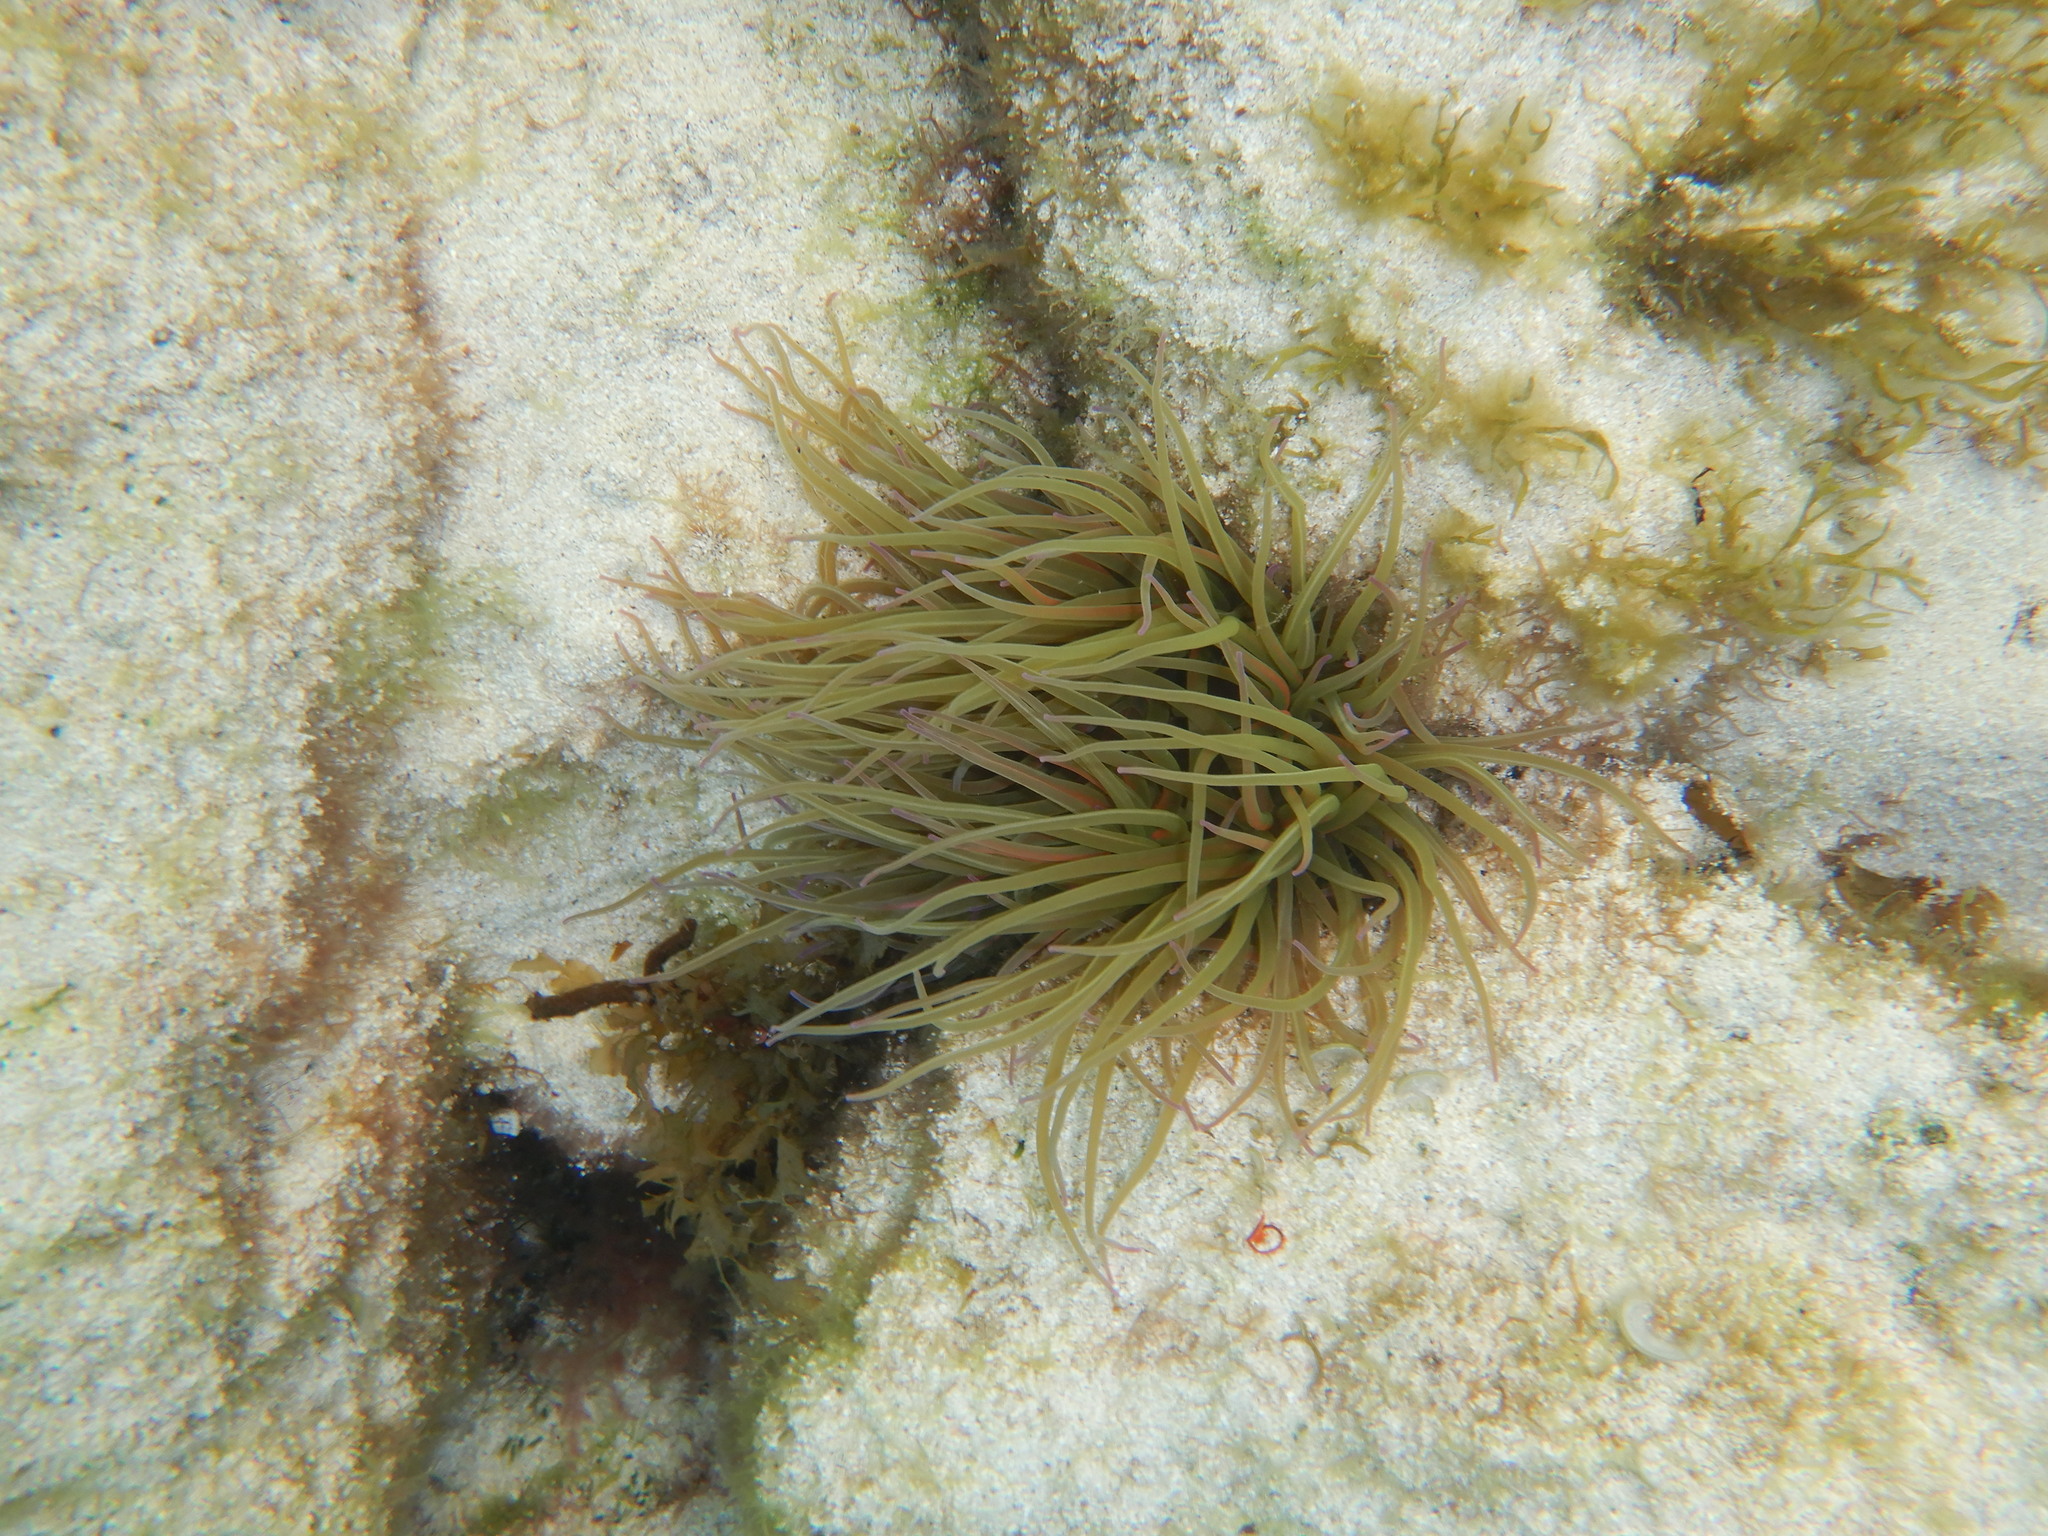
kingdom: Animalia
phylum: Cnidaria
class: Anthozoa
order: Actiniaria
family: Actiniidae
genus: Anemonia
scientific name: Anemonia viridis
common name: Snakelocks anemone
